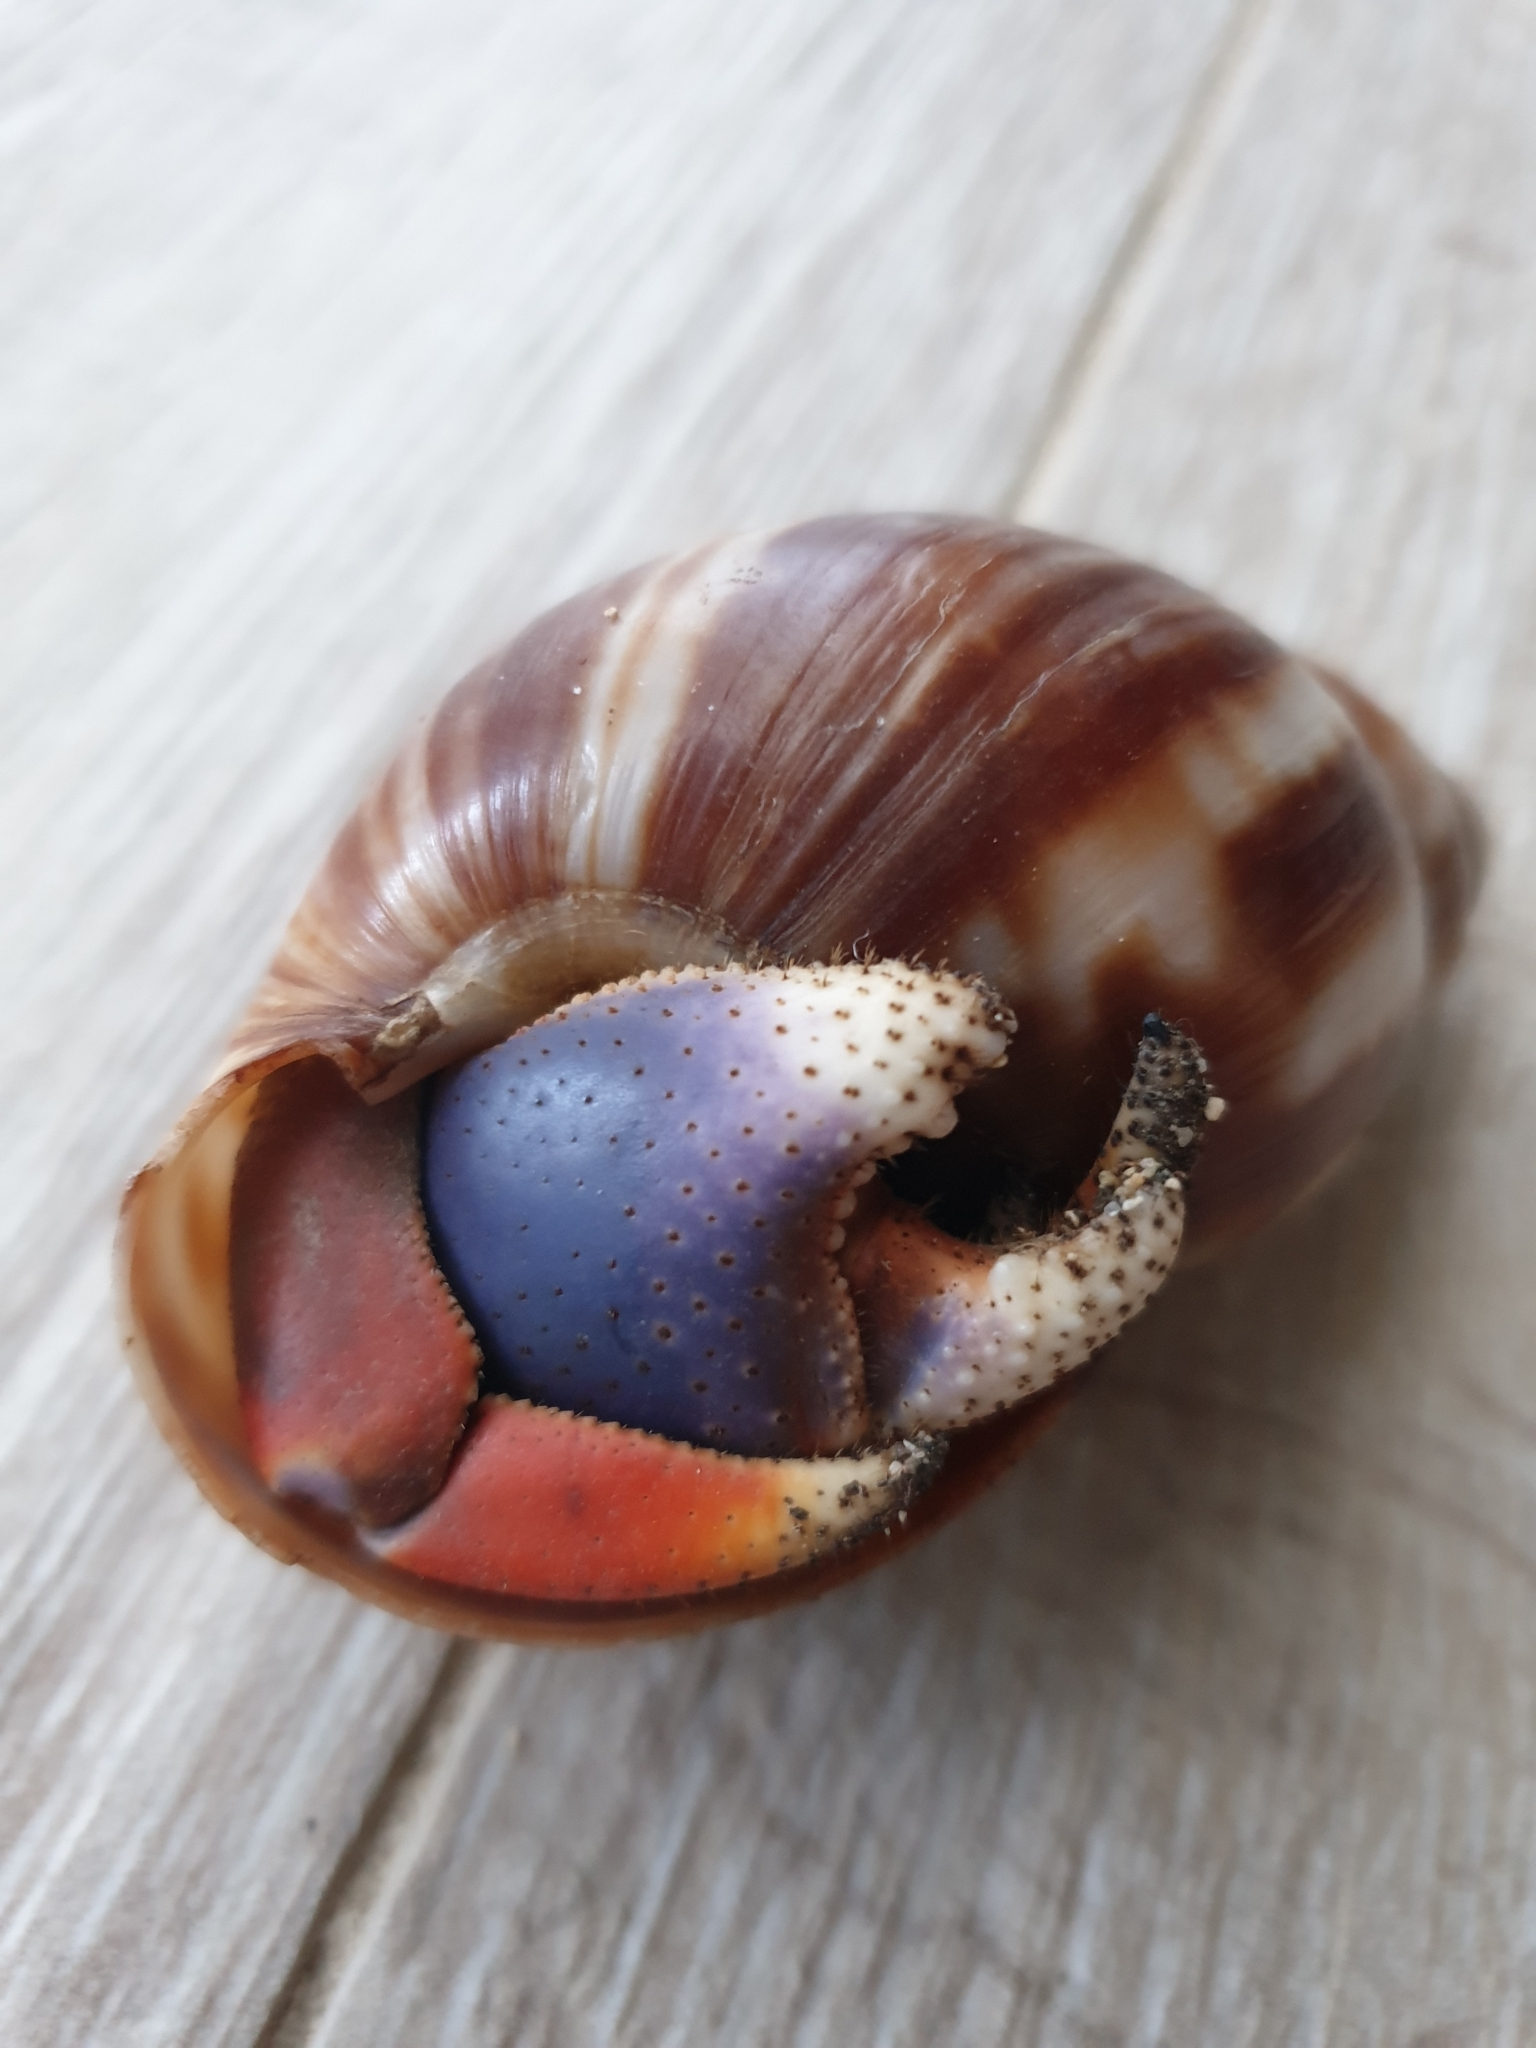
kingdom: Animalia
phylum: Arthropoda
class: Malacostraca
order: Decapoda
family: Coenobitidae
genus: Coenobita
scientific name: Coenobita clypeatus
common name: Caribbean hermit crab
